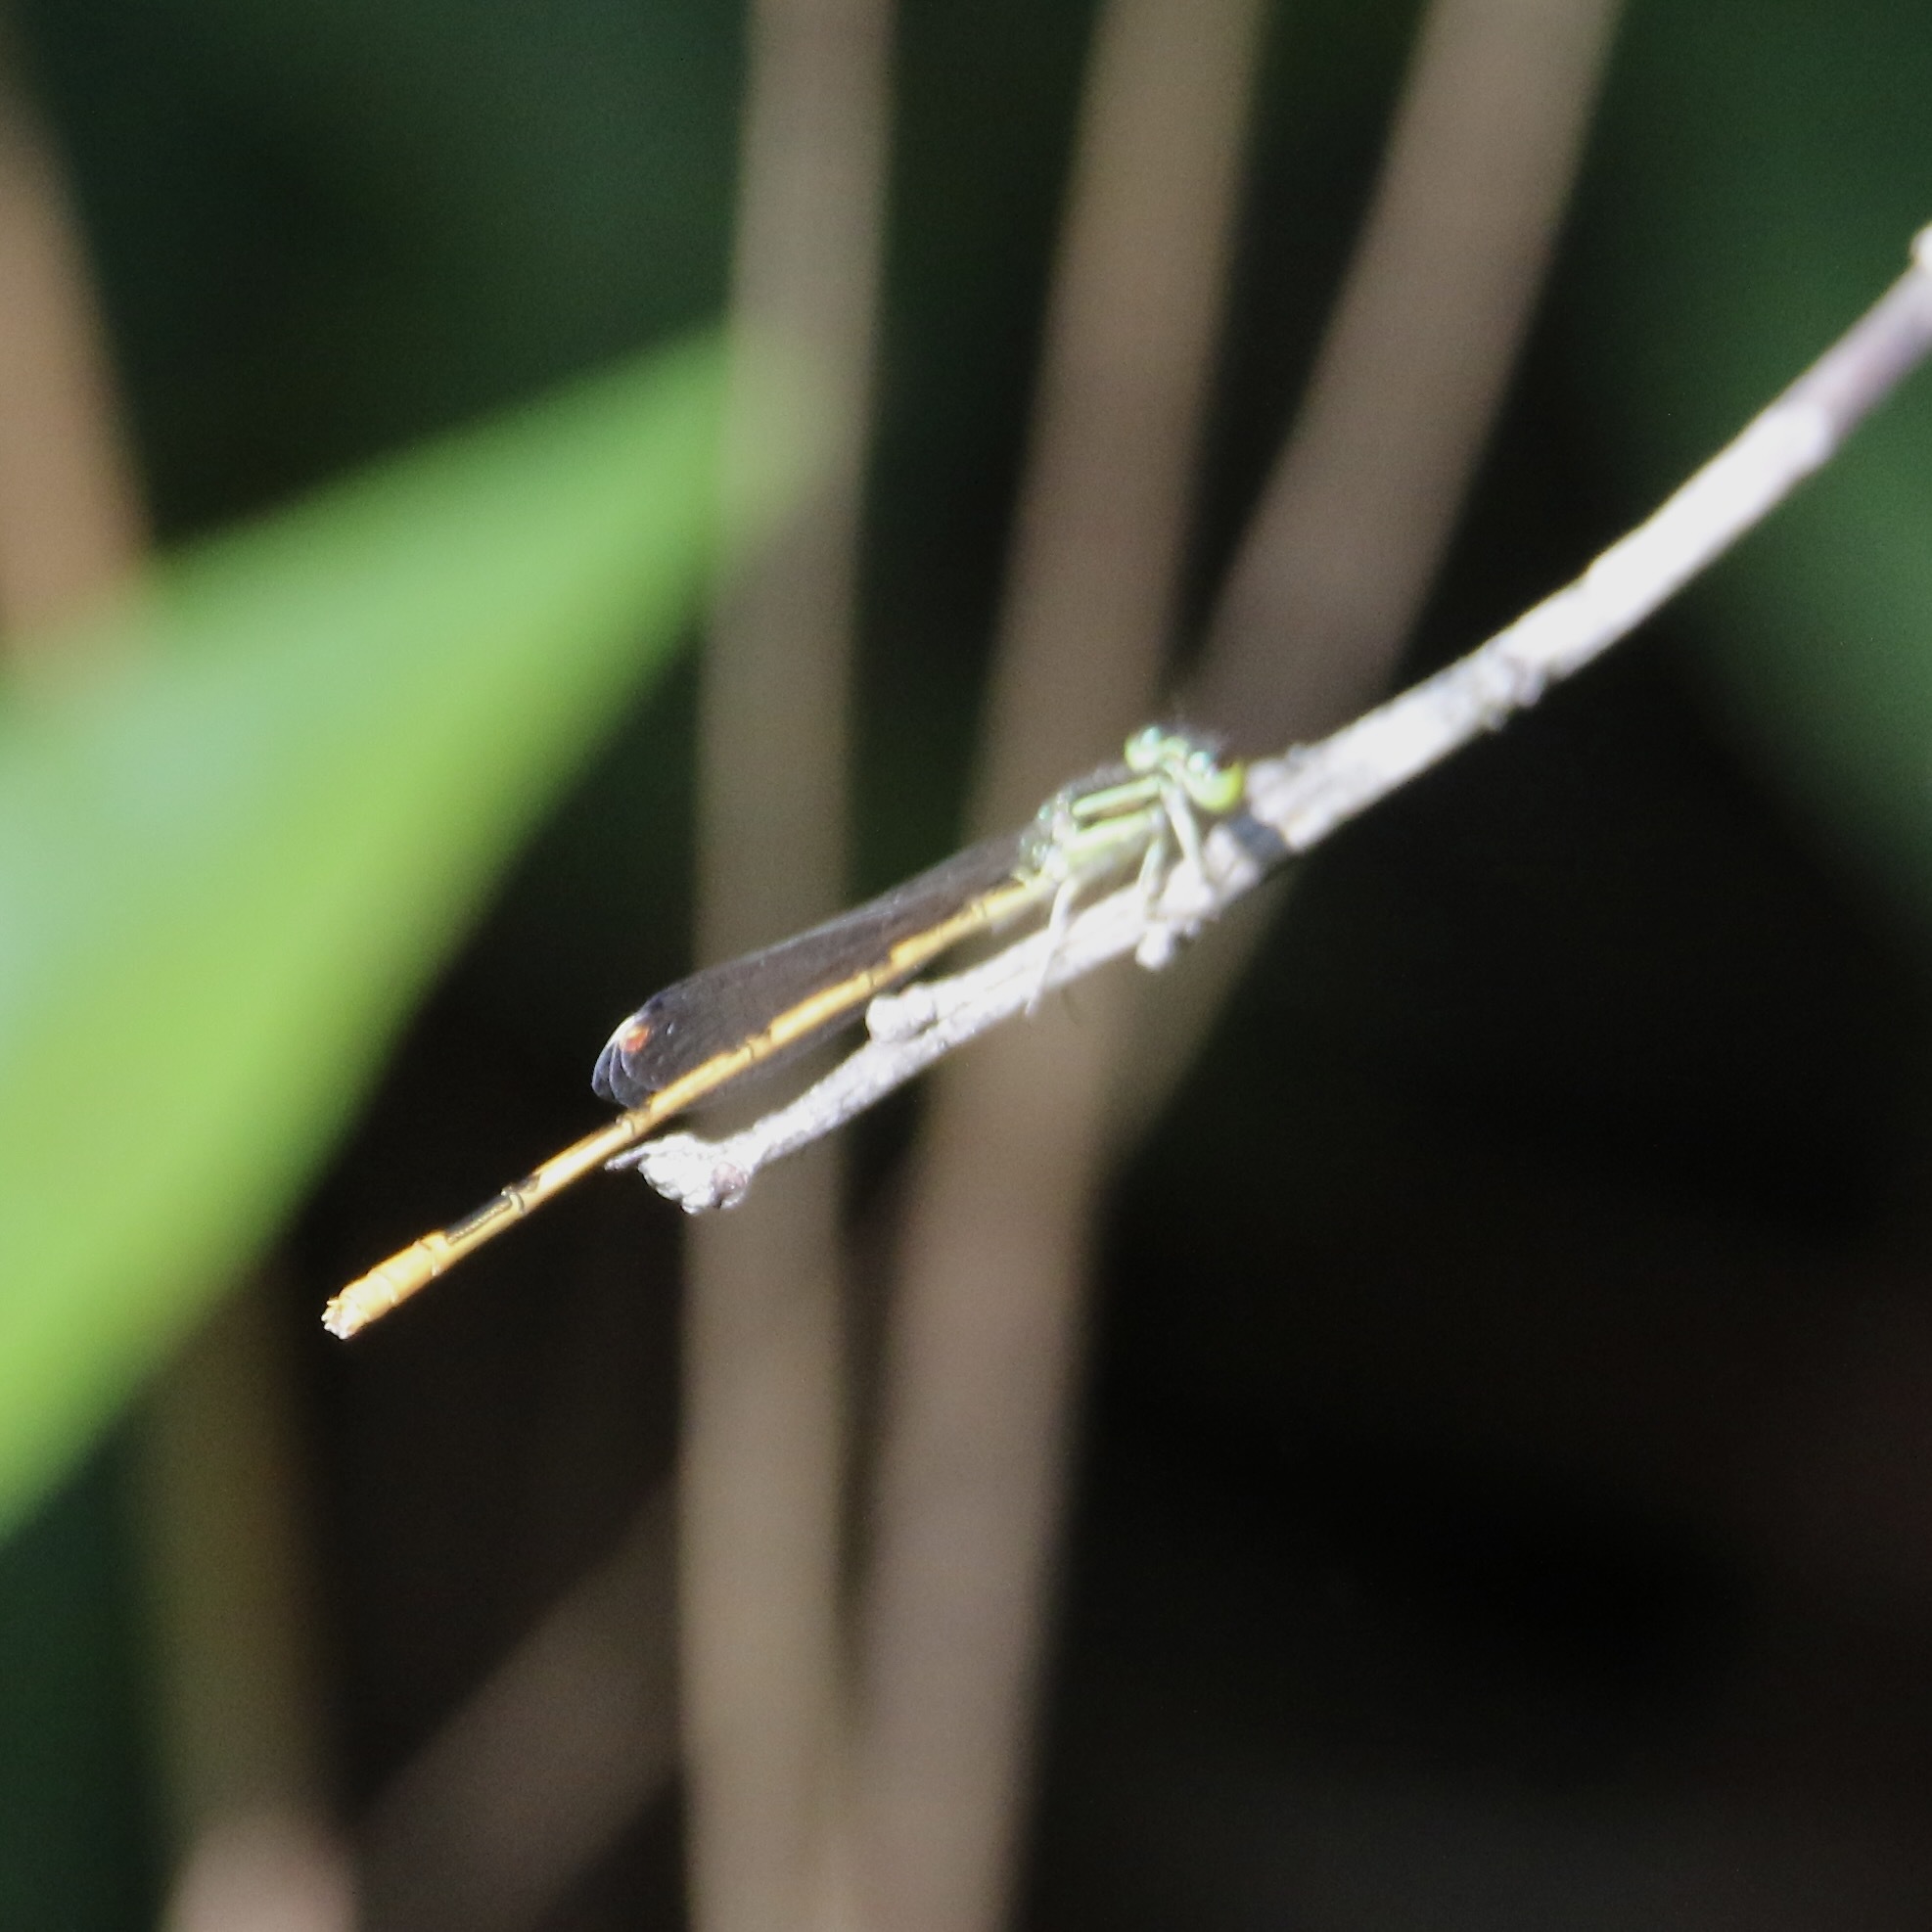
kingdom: Animalia
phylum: Arthropoda
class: Insecta
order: Odonata
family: Coenagrionidae
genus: Ischnura
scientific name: Ischnura hastata
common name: Citrine forktail
